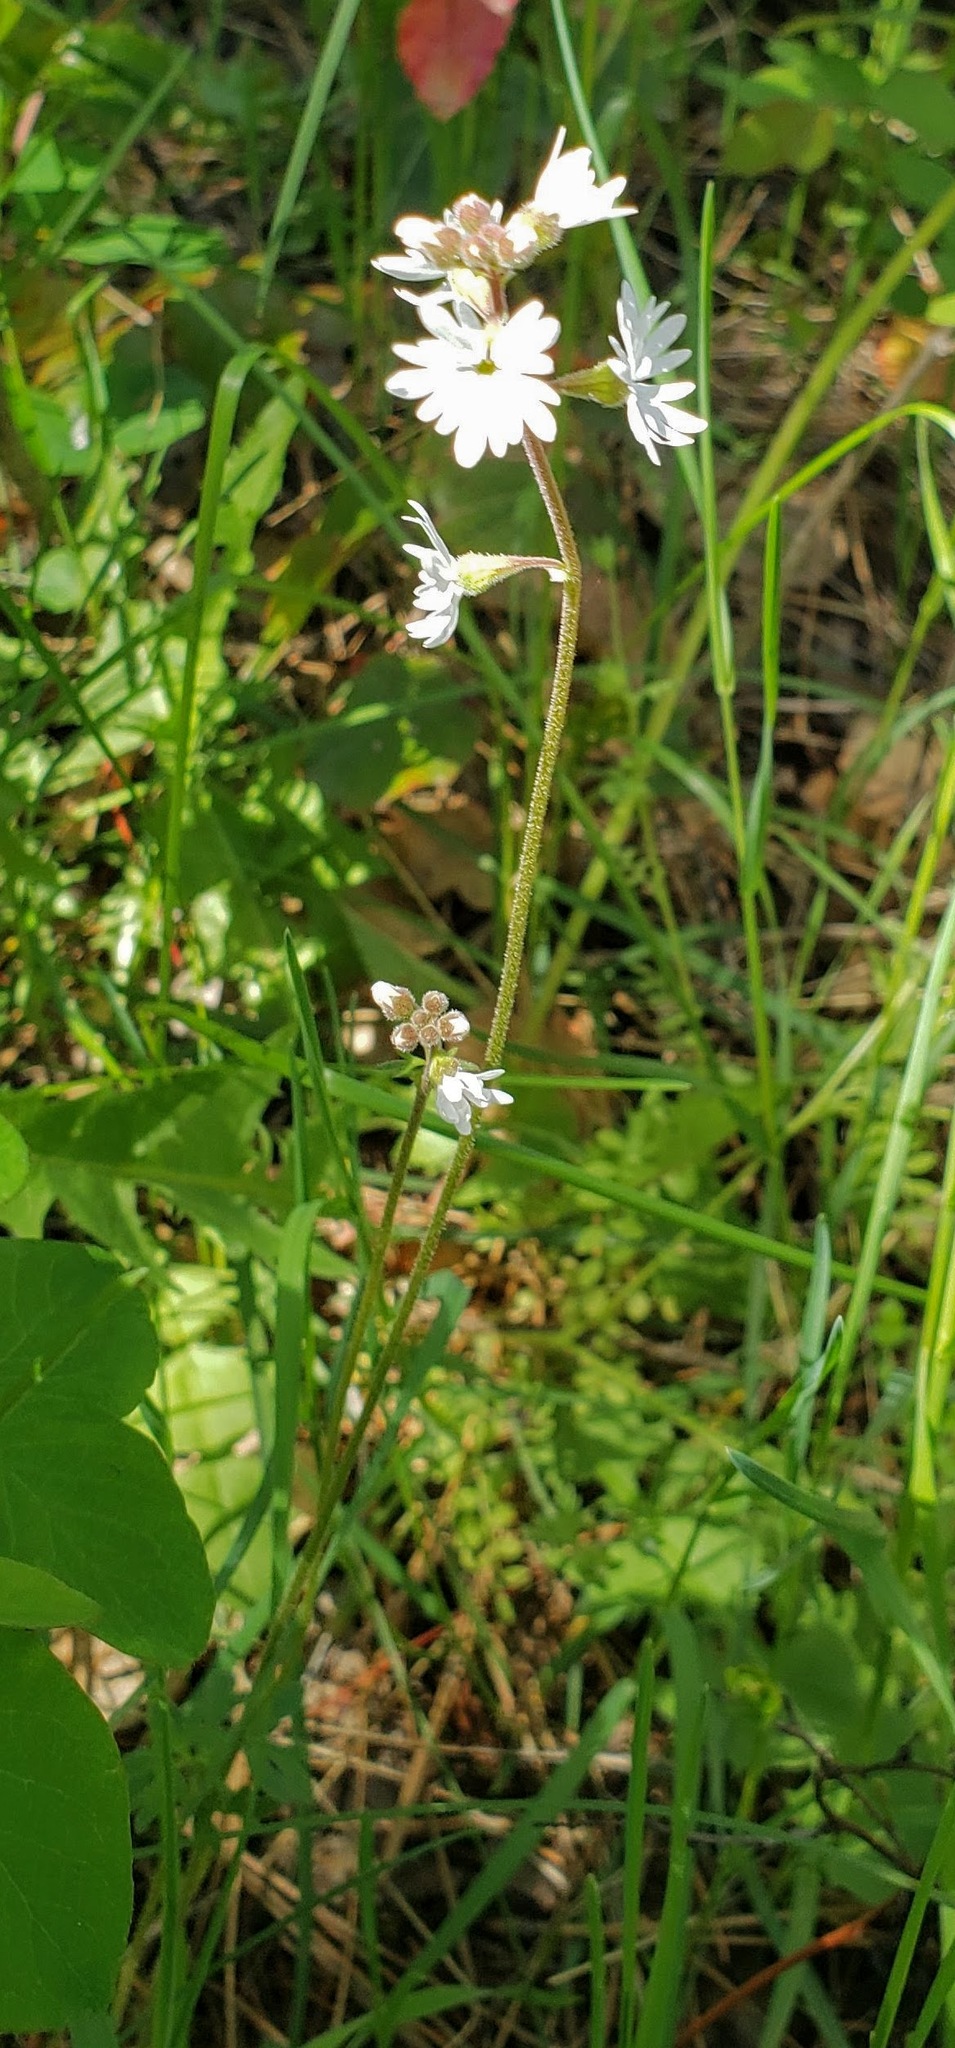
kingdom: Plantae
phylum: Tracheophyta
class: Magnoliopsida
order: Saxifragales
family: Saxifragaceae
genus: Lithophragma
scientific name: Lithophragma parviflorum
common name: Small-flowered fringe-cup
